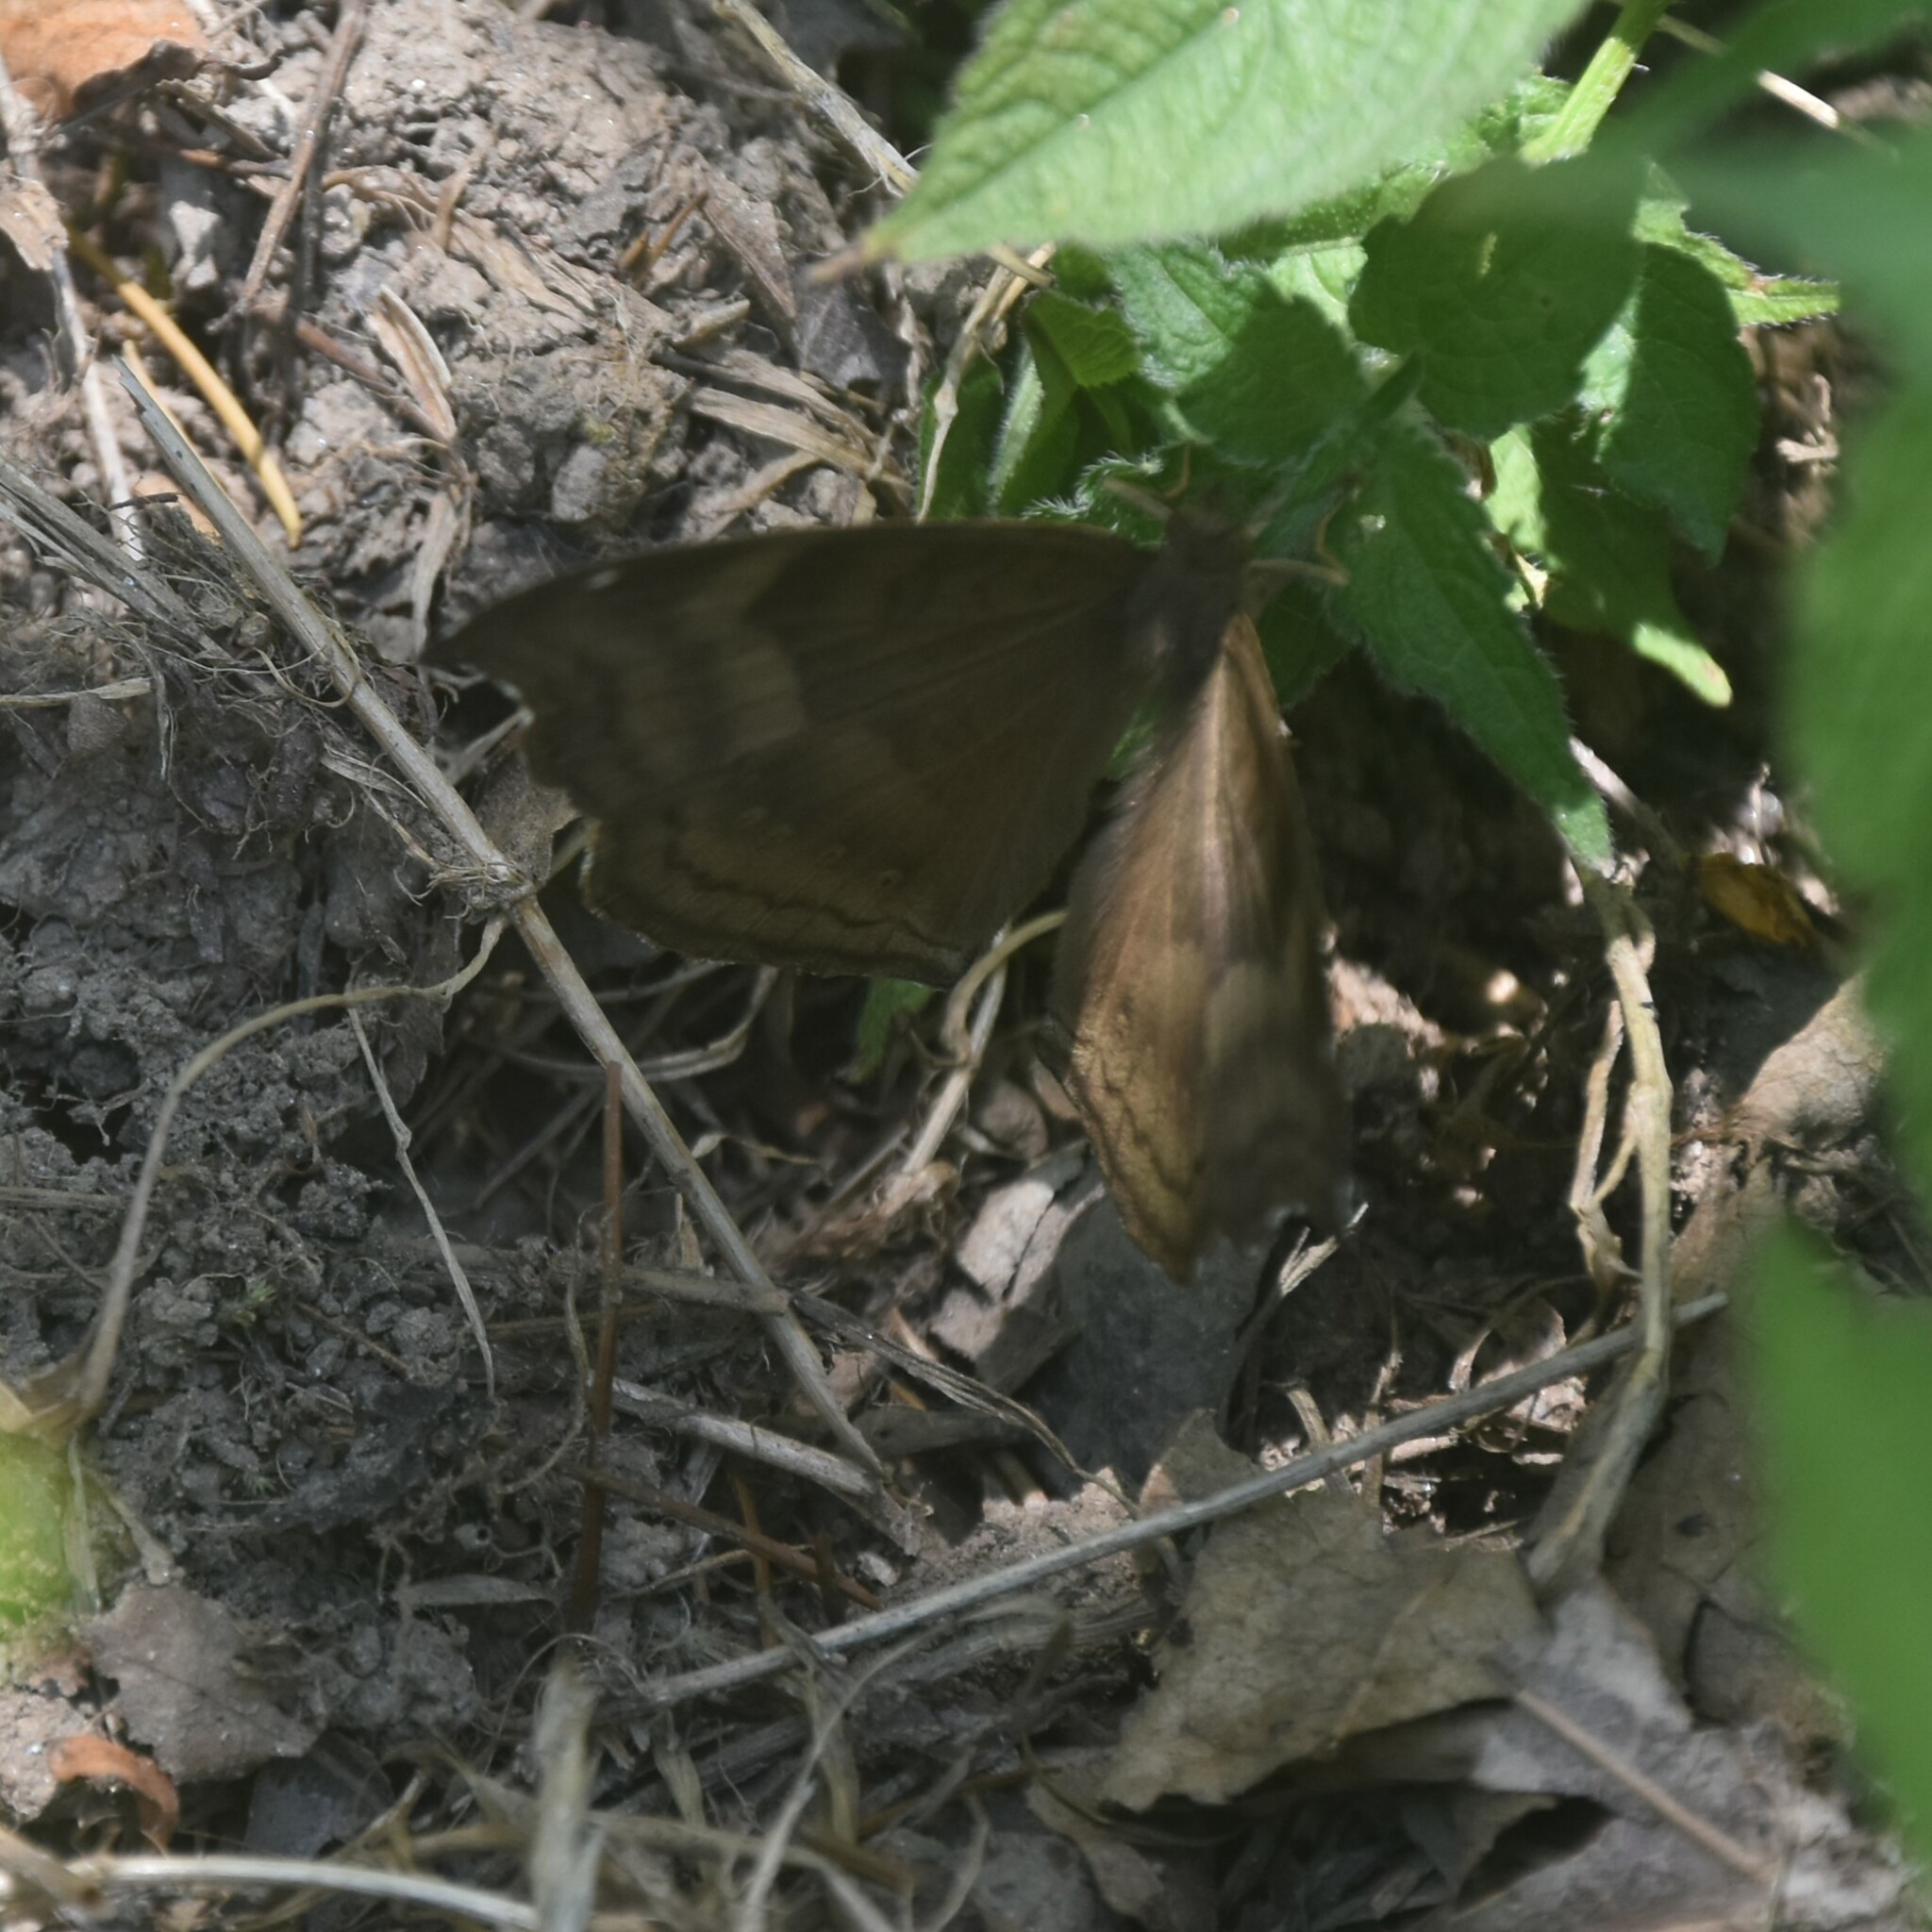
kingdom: Animalia
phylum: Arthropoda
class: Insecta
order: Lepidoptera
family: Nymphalidae
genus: Junonia
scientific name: Junonia iphita
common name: Chocolate pansy
